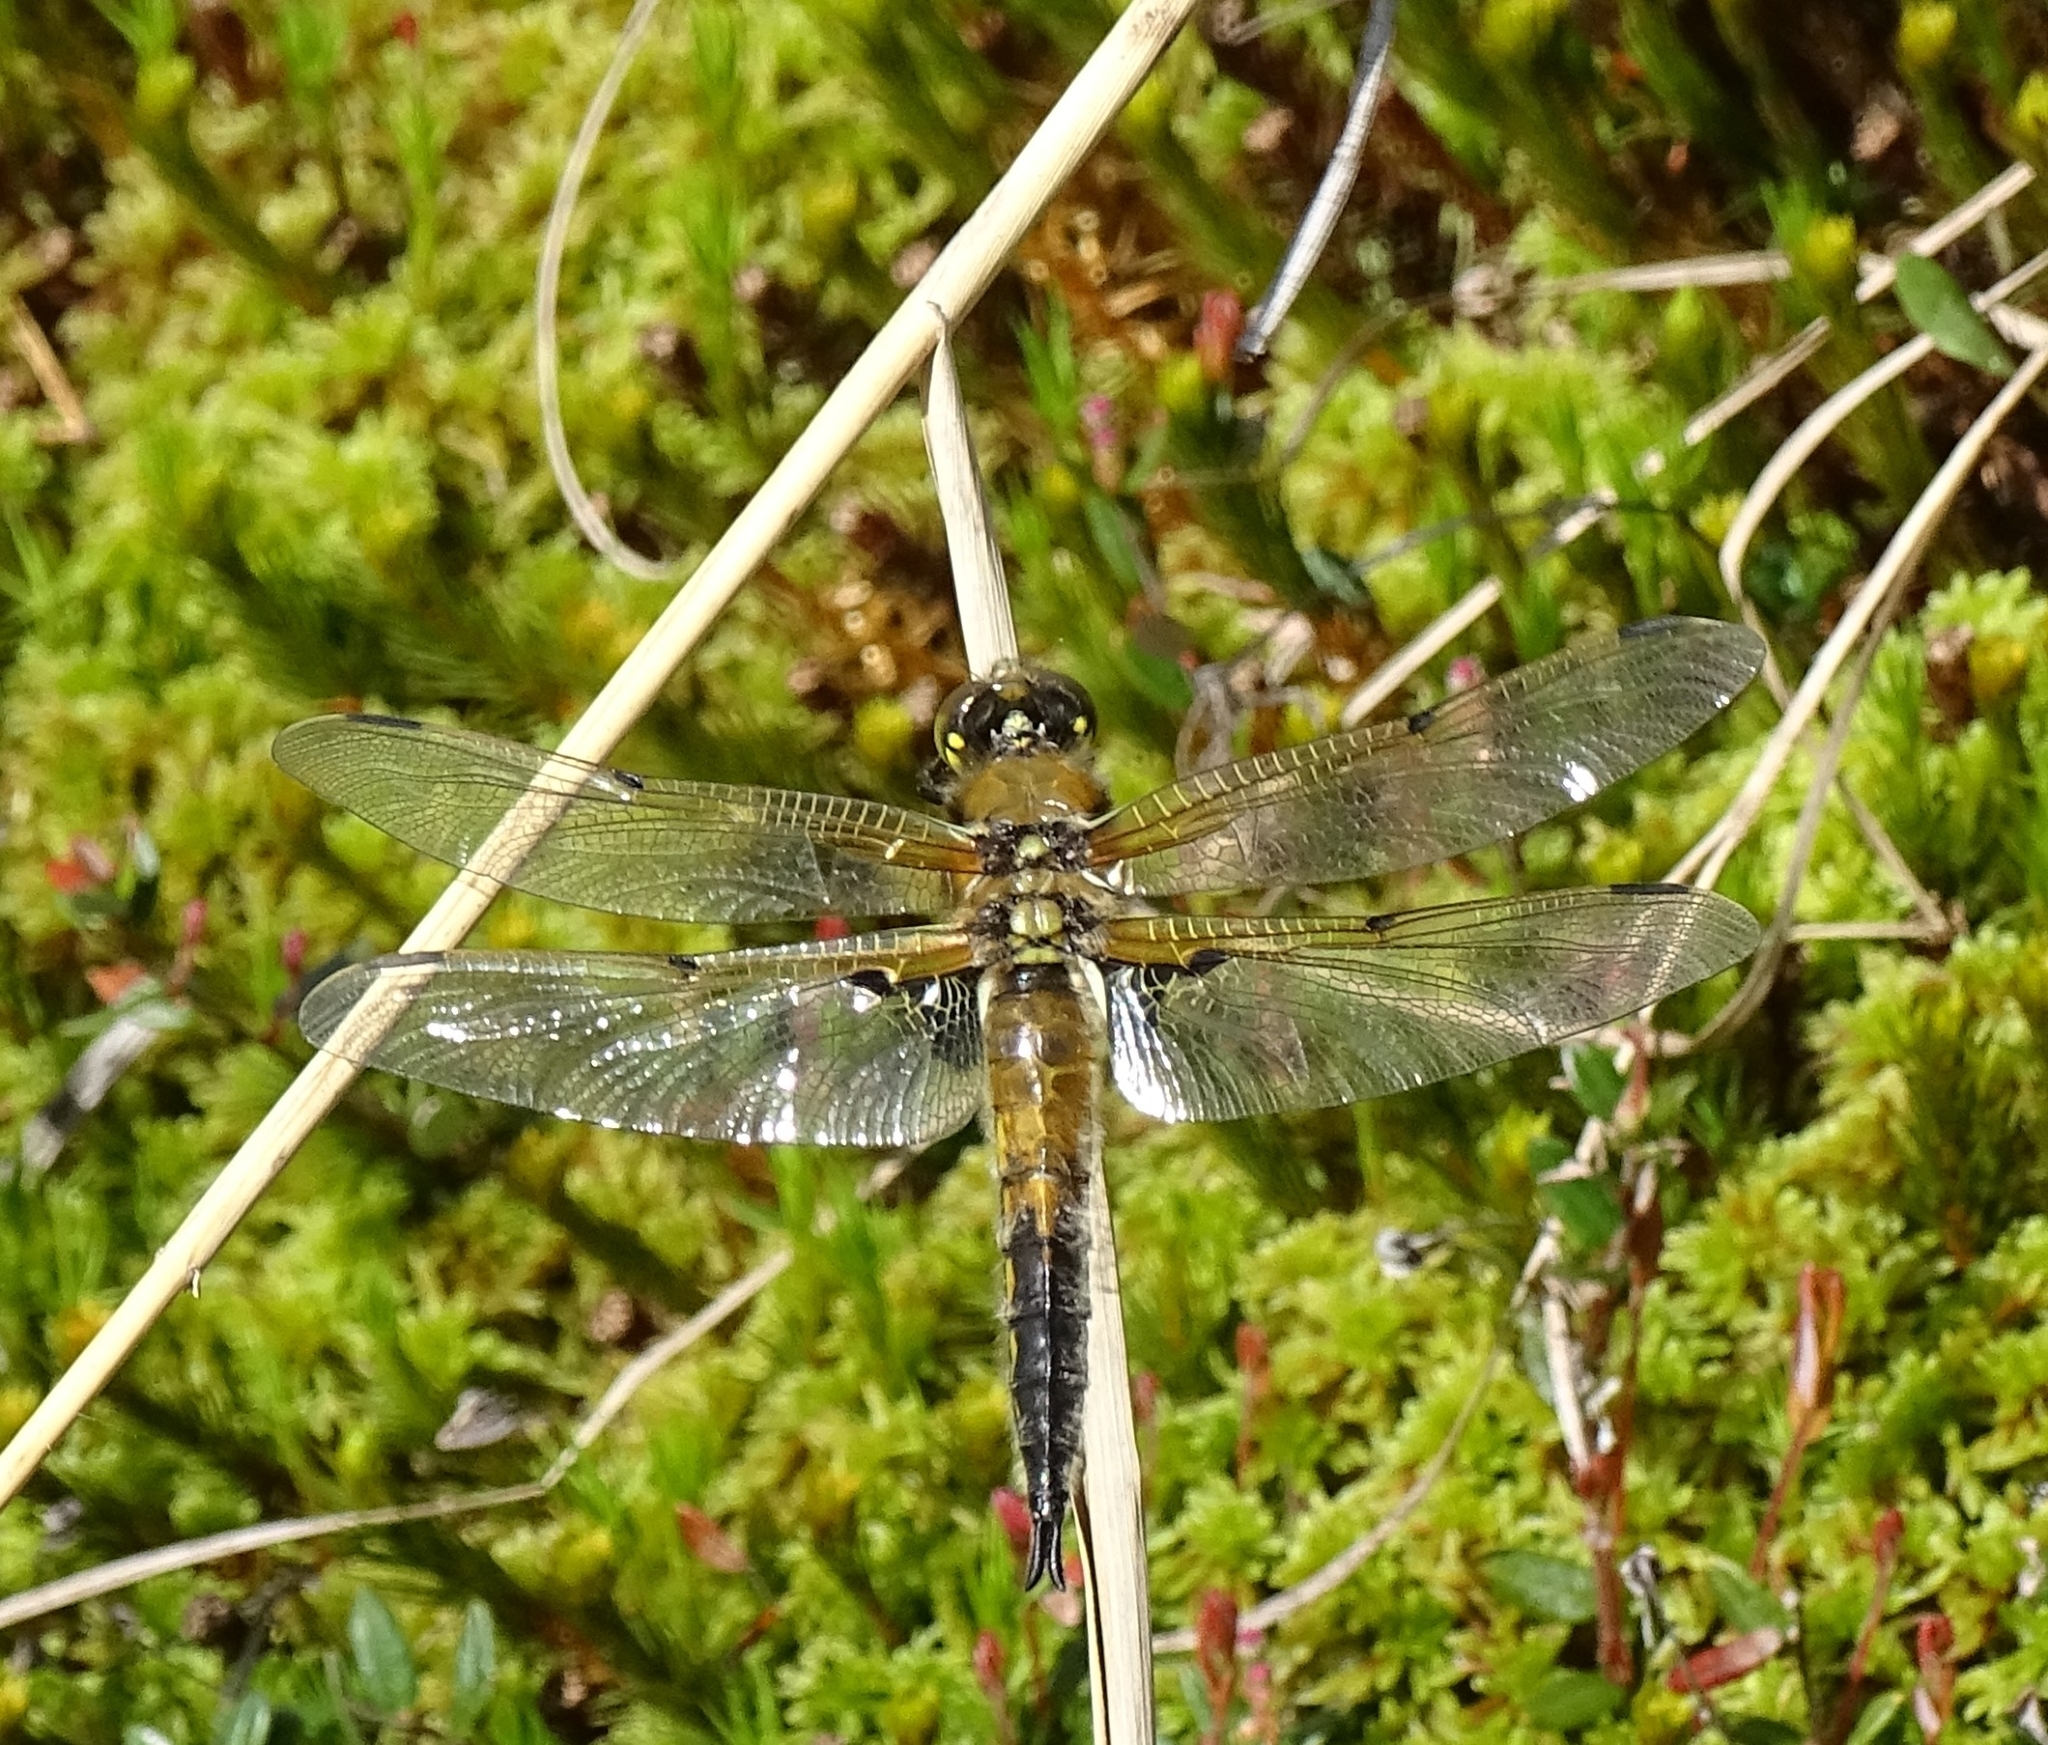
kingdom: Animalia
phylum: Arthropoda
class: Insecta
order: Odonata
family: Libellulidae
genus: Libellula
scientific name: Libellula quadrimaculata
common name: Four-spotted chaser
